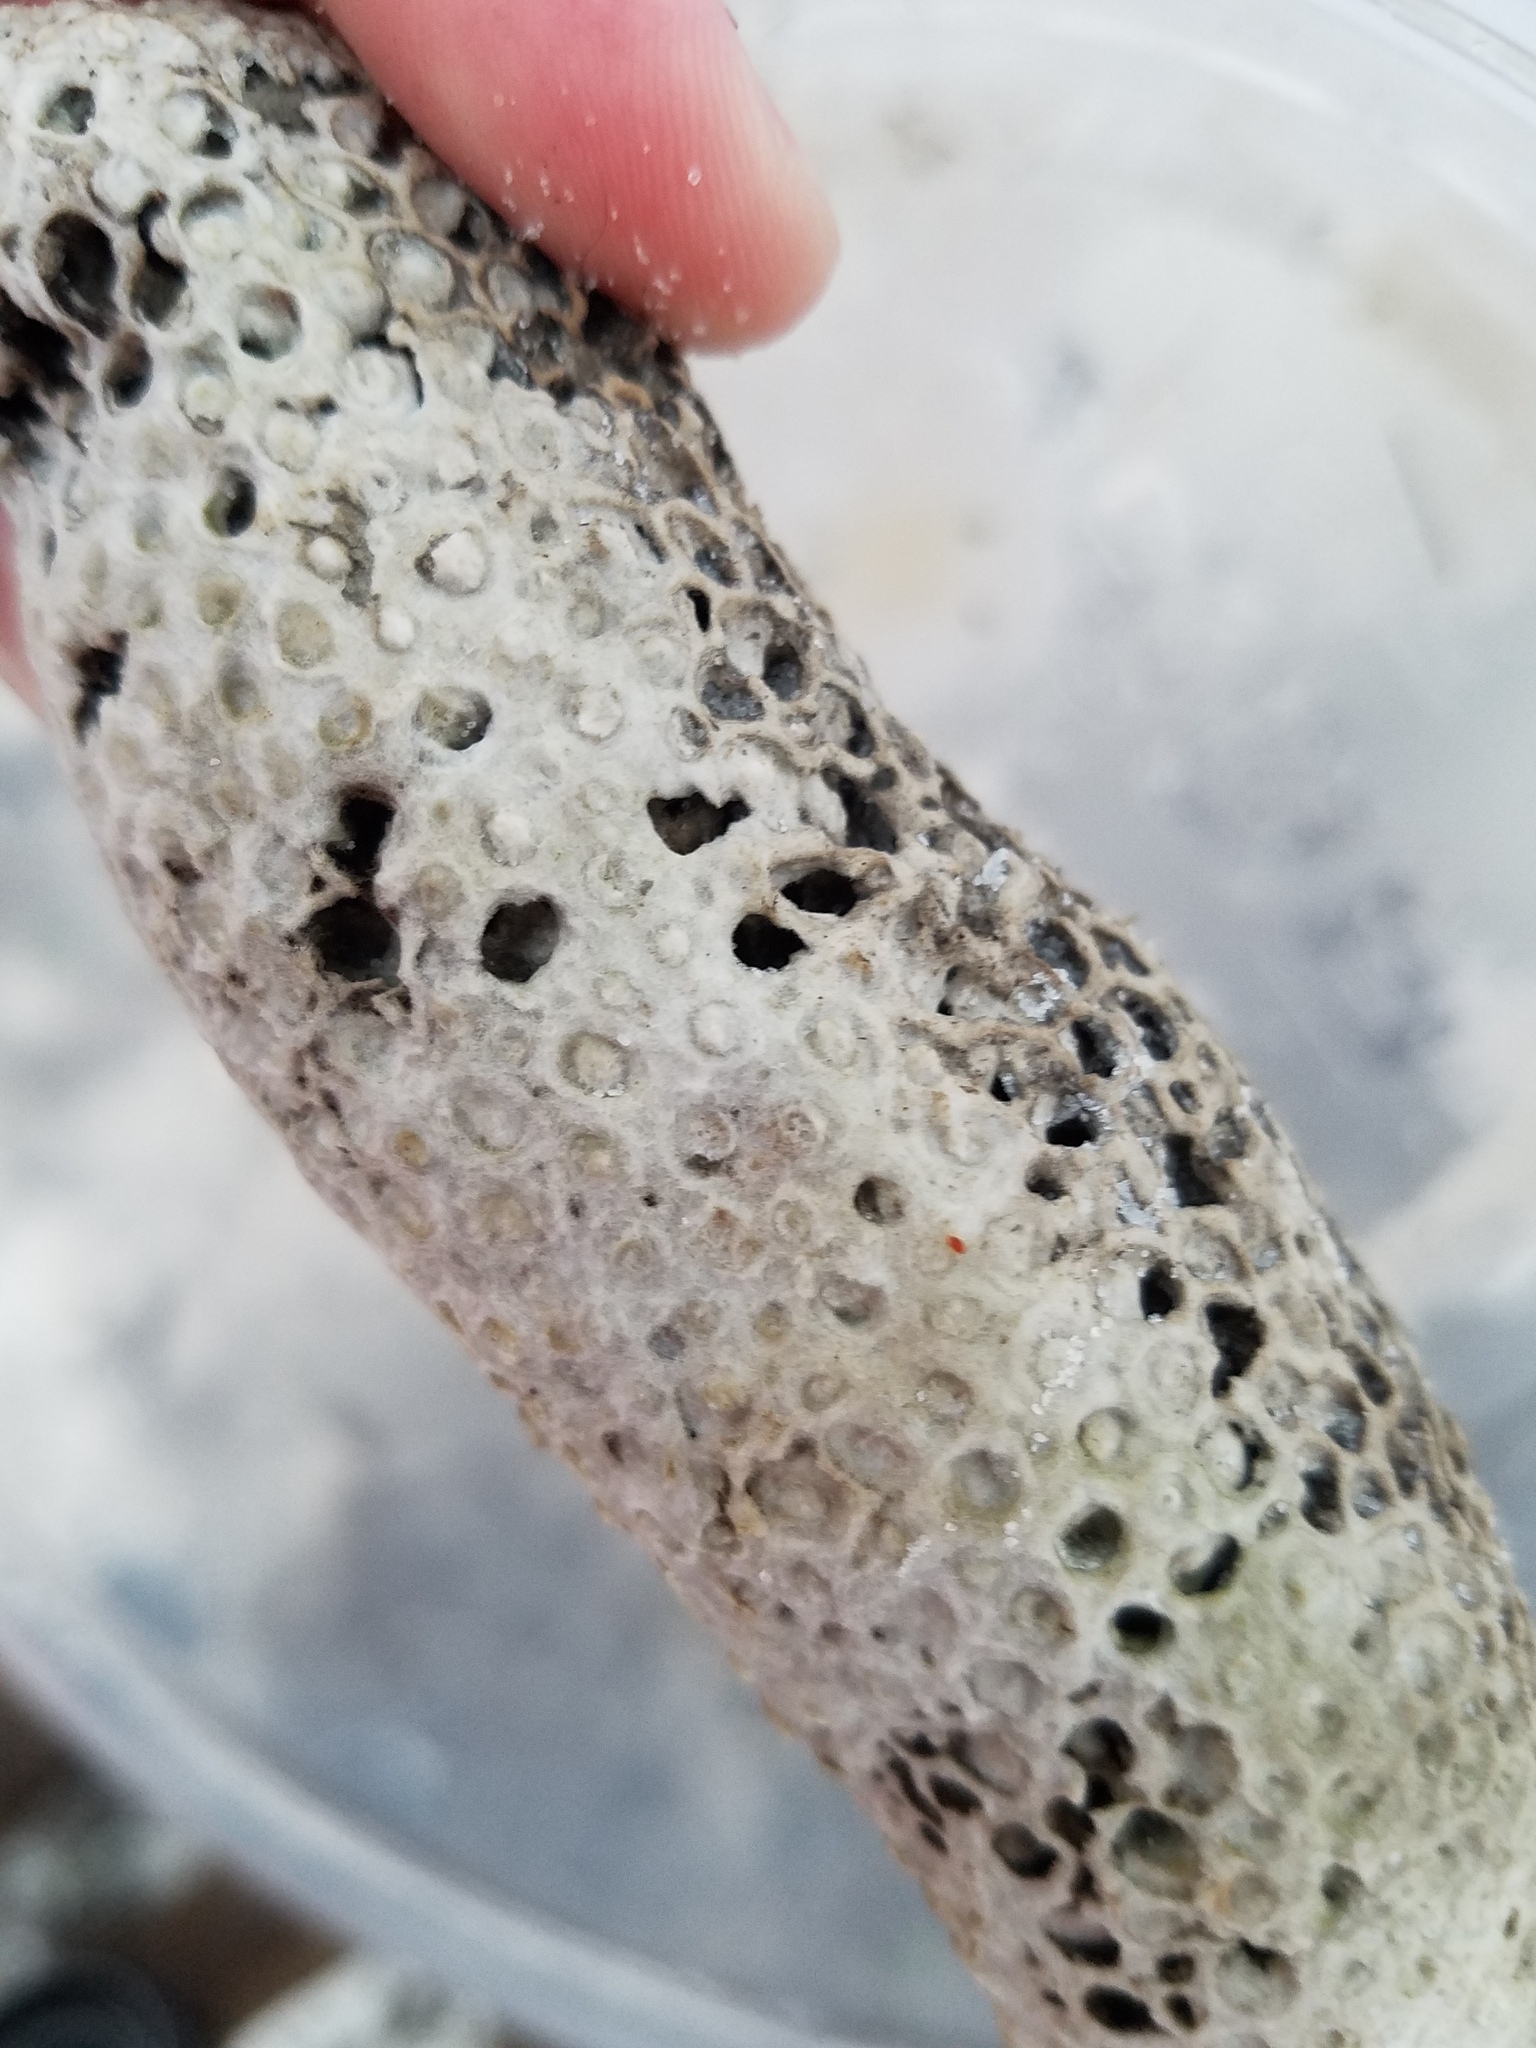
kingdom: Animalia
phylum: Porifera
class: Demospongiae
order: Clionaida
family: Clionaidae
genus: Cliona
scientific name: Cliona celata
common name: Boring sponge
